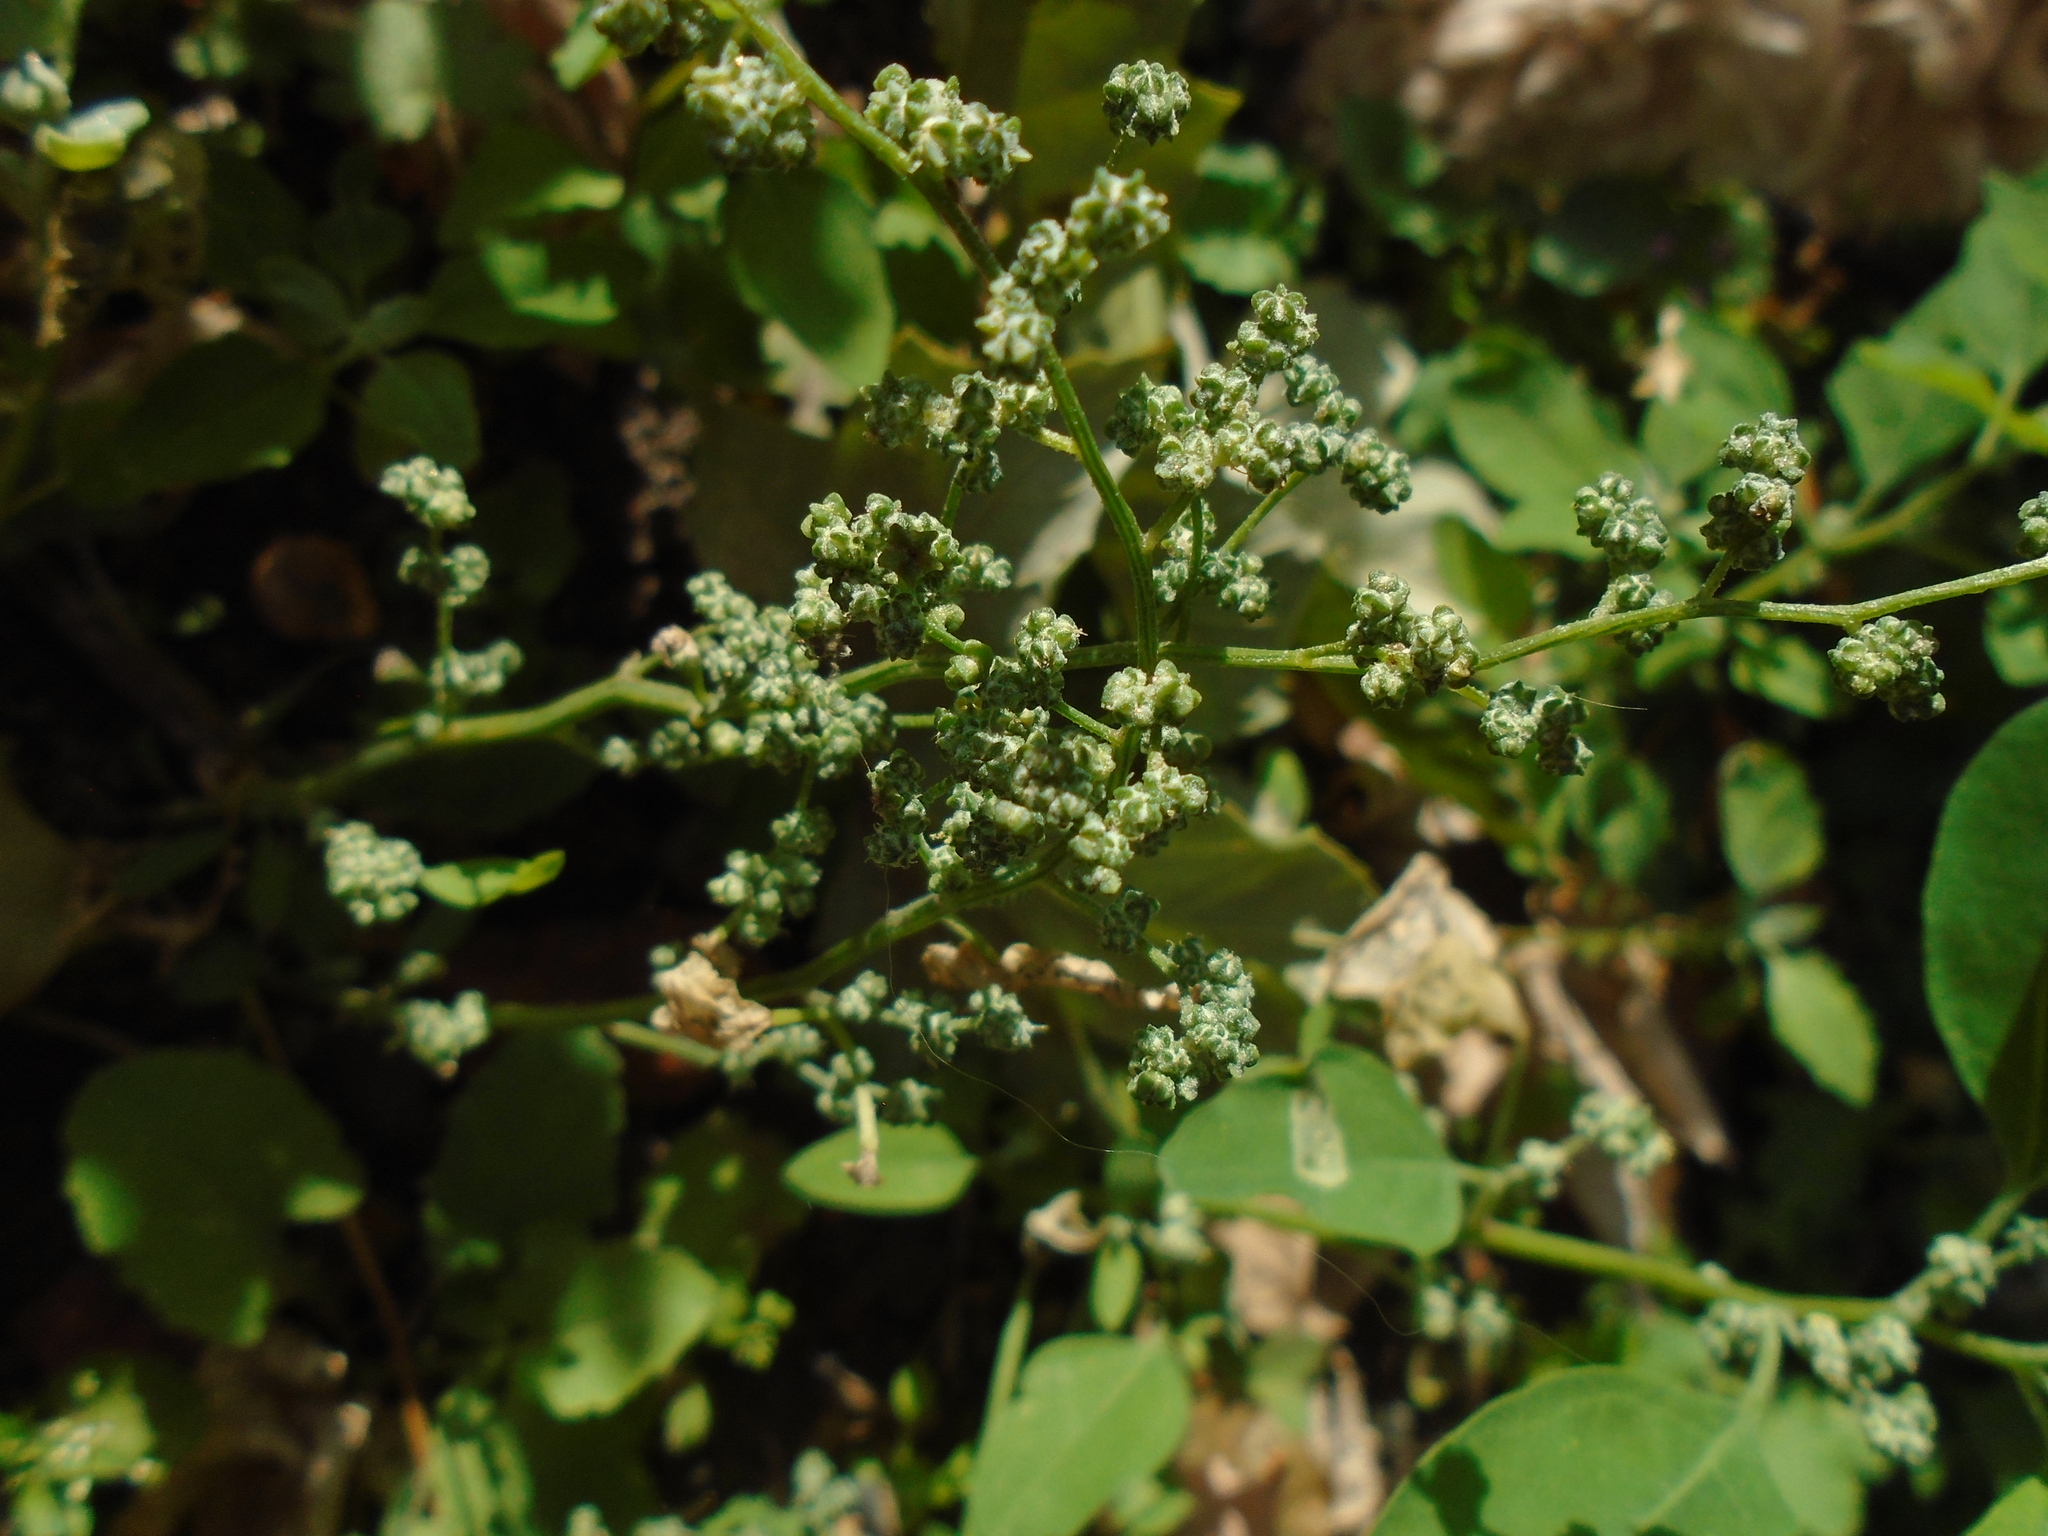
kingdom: Plantae
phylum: Tracheophyta
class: Magnoliopsida
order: Caryophyllales
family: Amaranthaceae
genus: Chenopodium
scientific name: Chenopodium album
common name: Fat-hen
